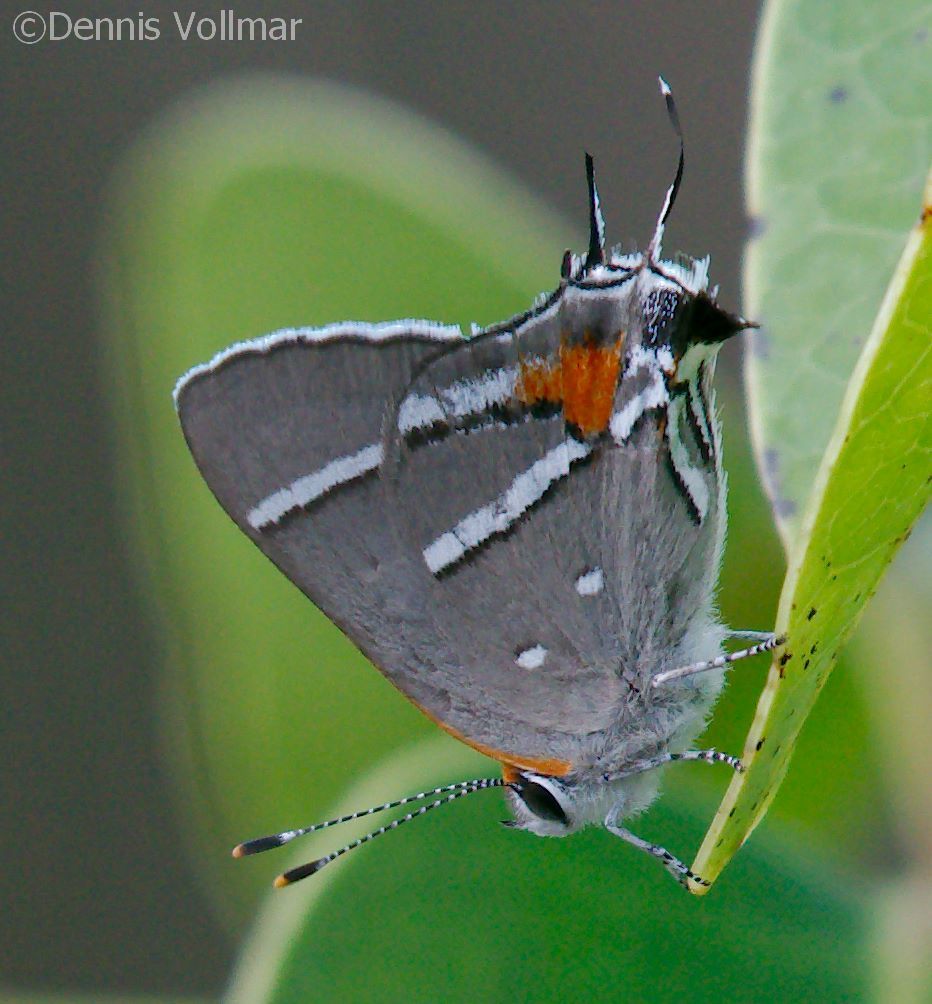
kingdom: Animalia
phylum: Arthropoda
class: Insecta
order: Lepidoptera
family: Lycaenidae
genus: Nomiades
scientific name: Nomiades acis
